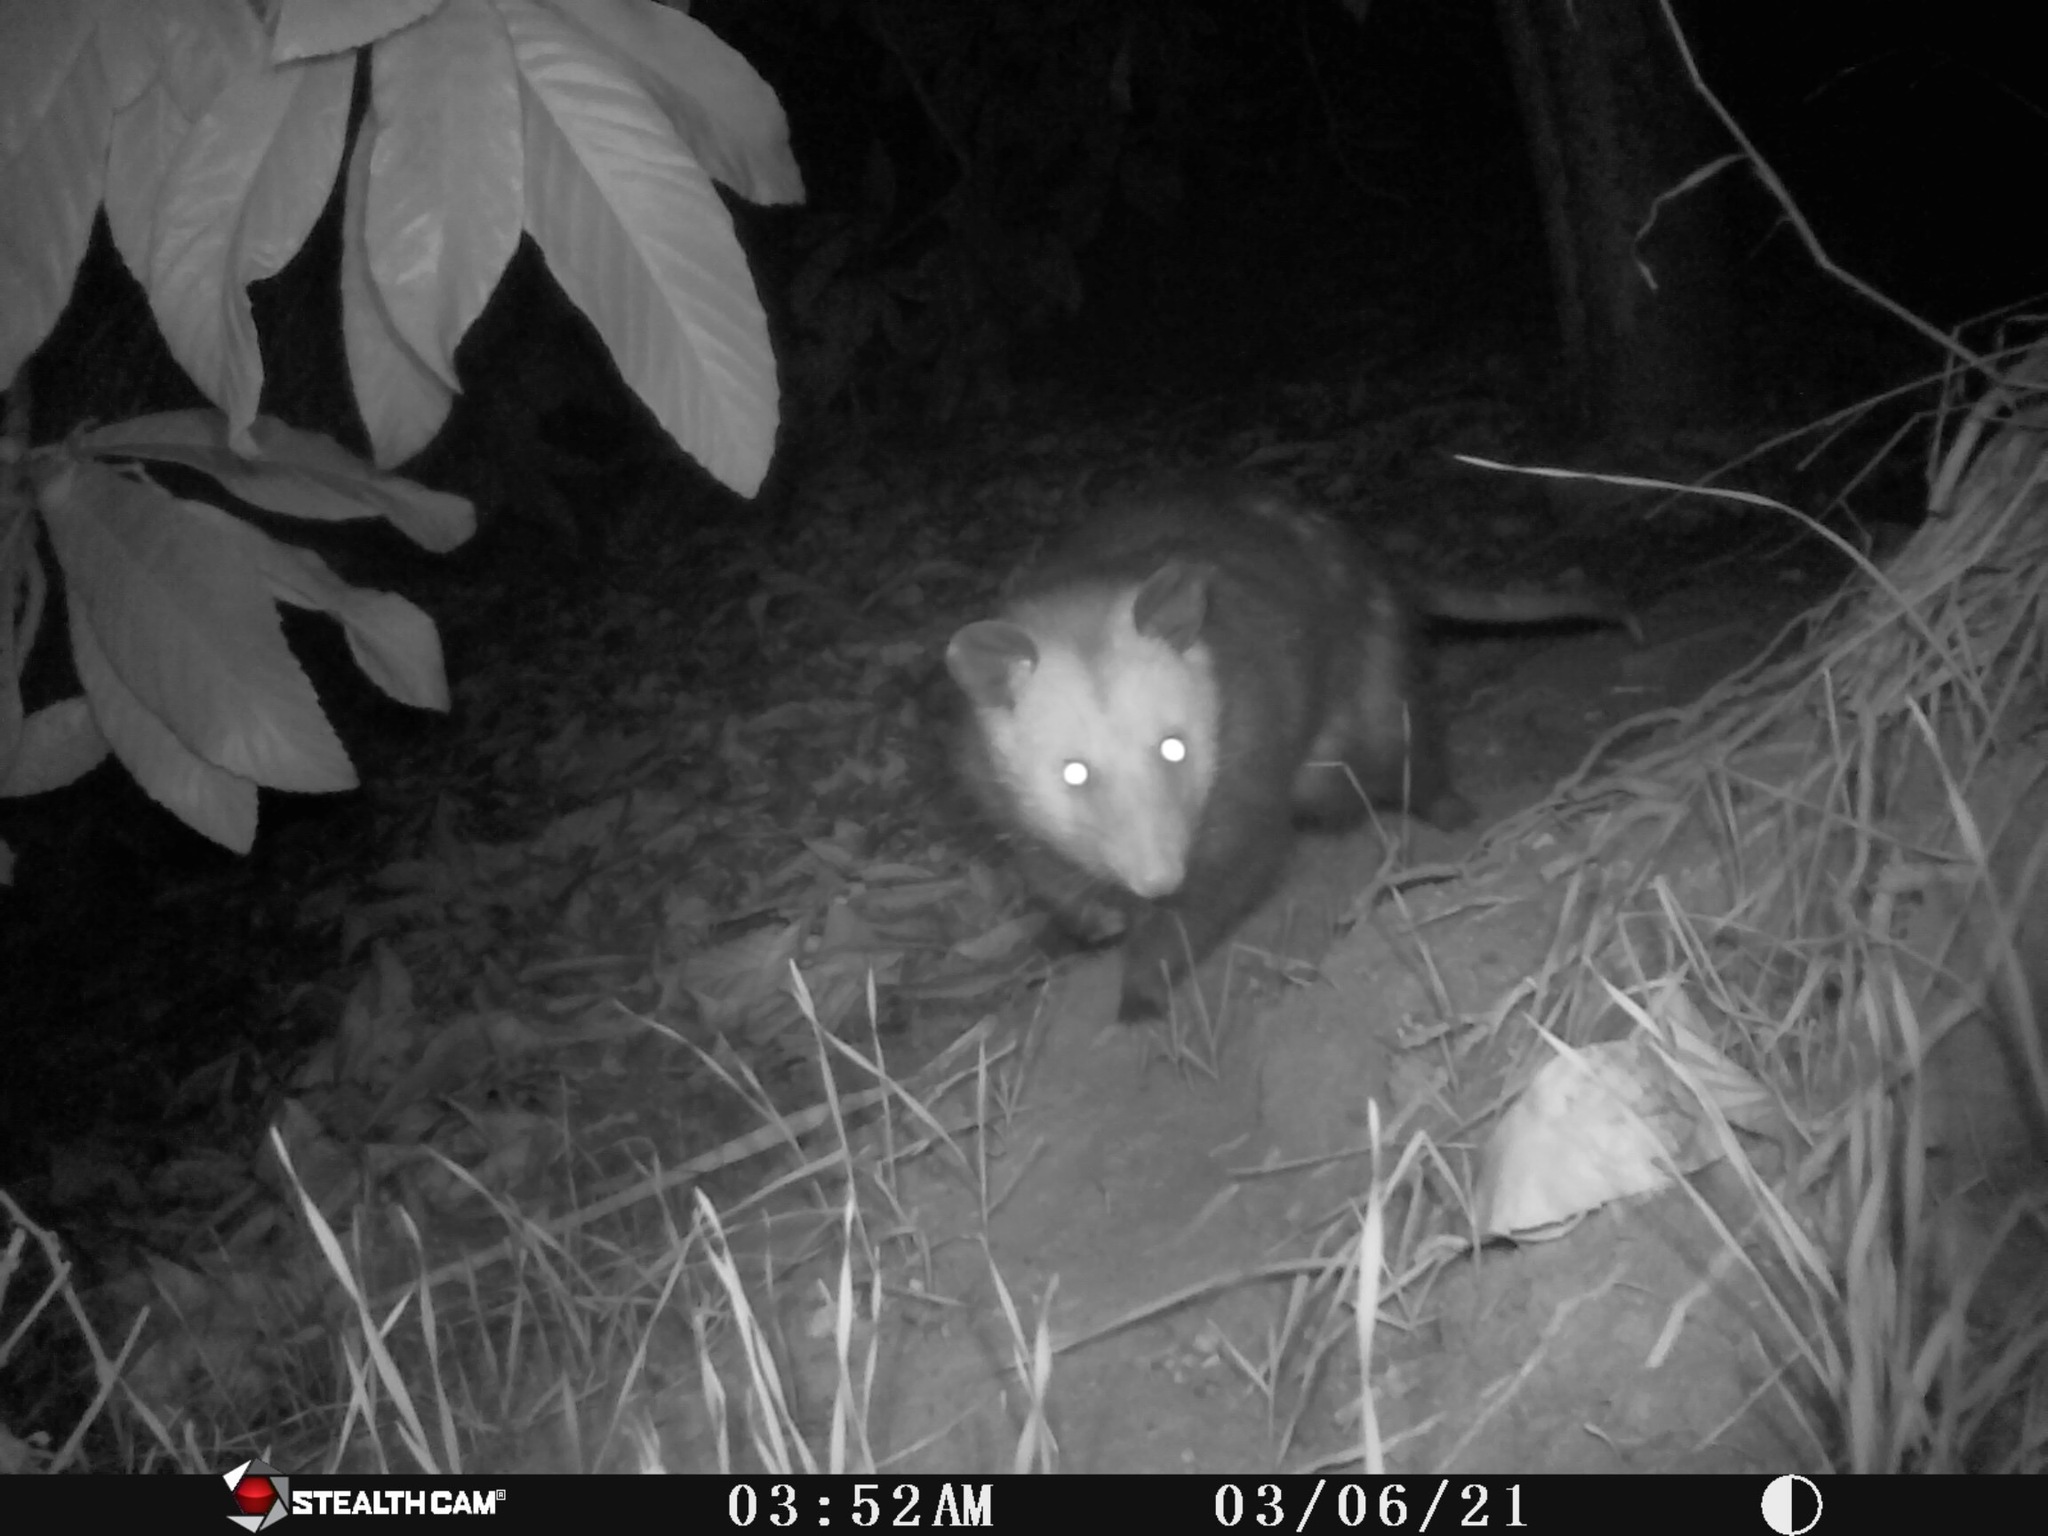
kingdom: Animalia
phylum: Chordata
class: Mammalia
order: Didelphimorphia
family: Didelphidae
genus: Didelphis
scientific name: Didelphis virginiana
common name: Virginia opossum
